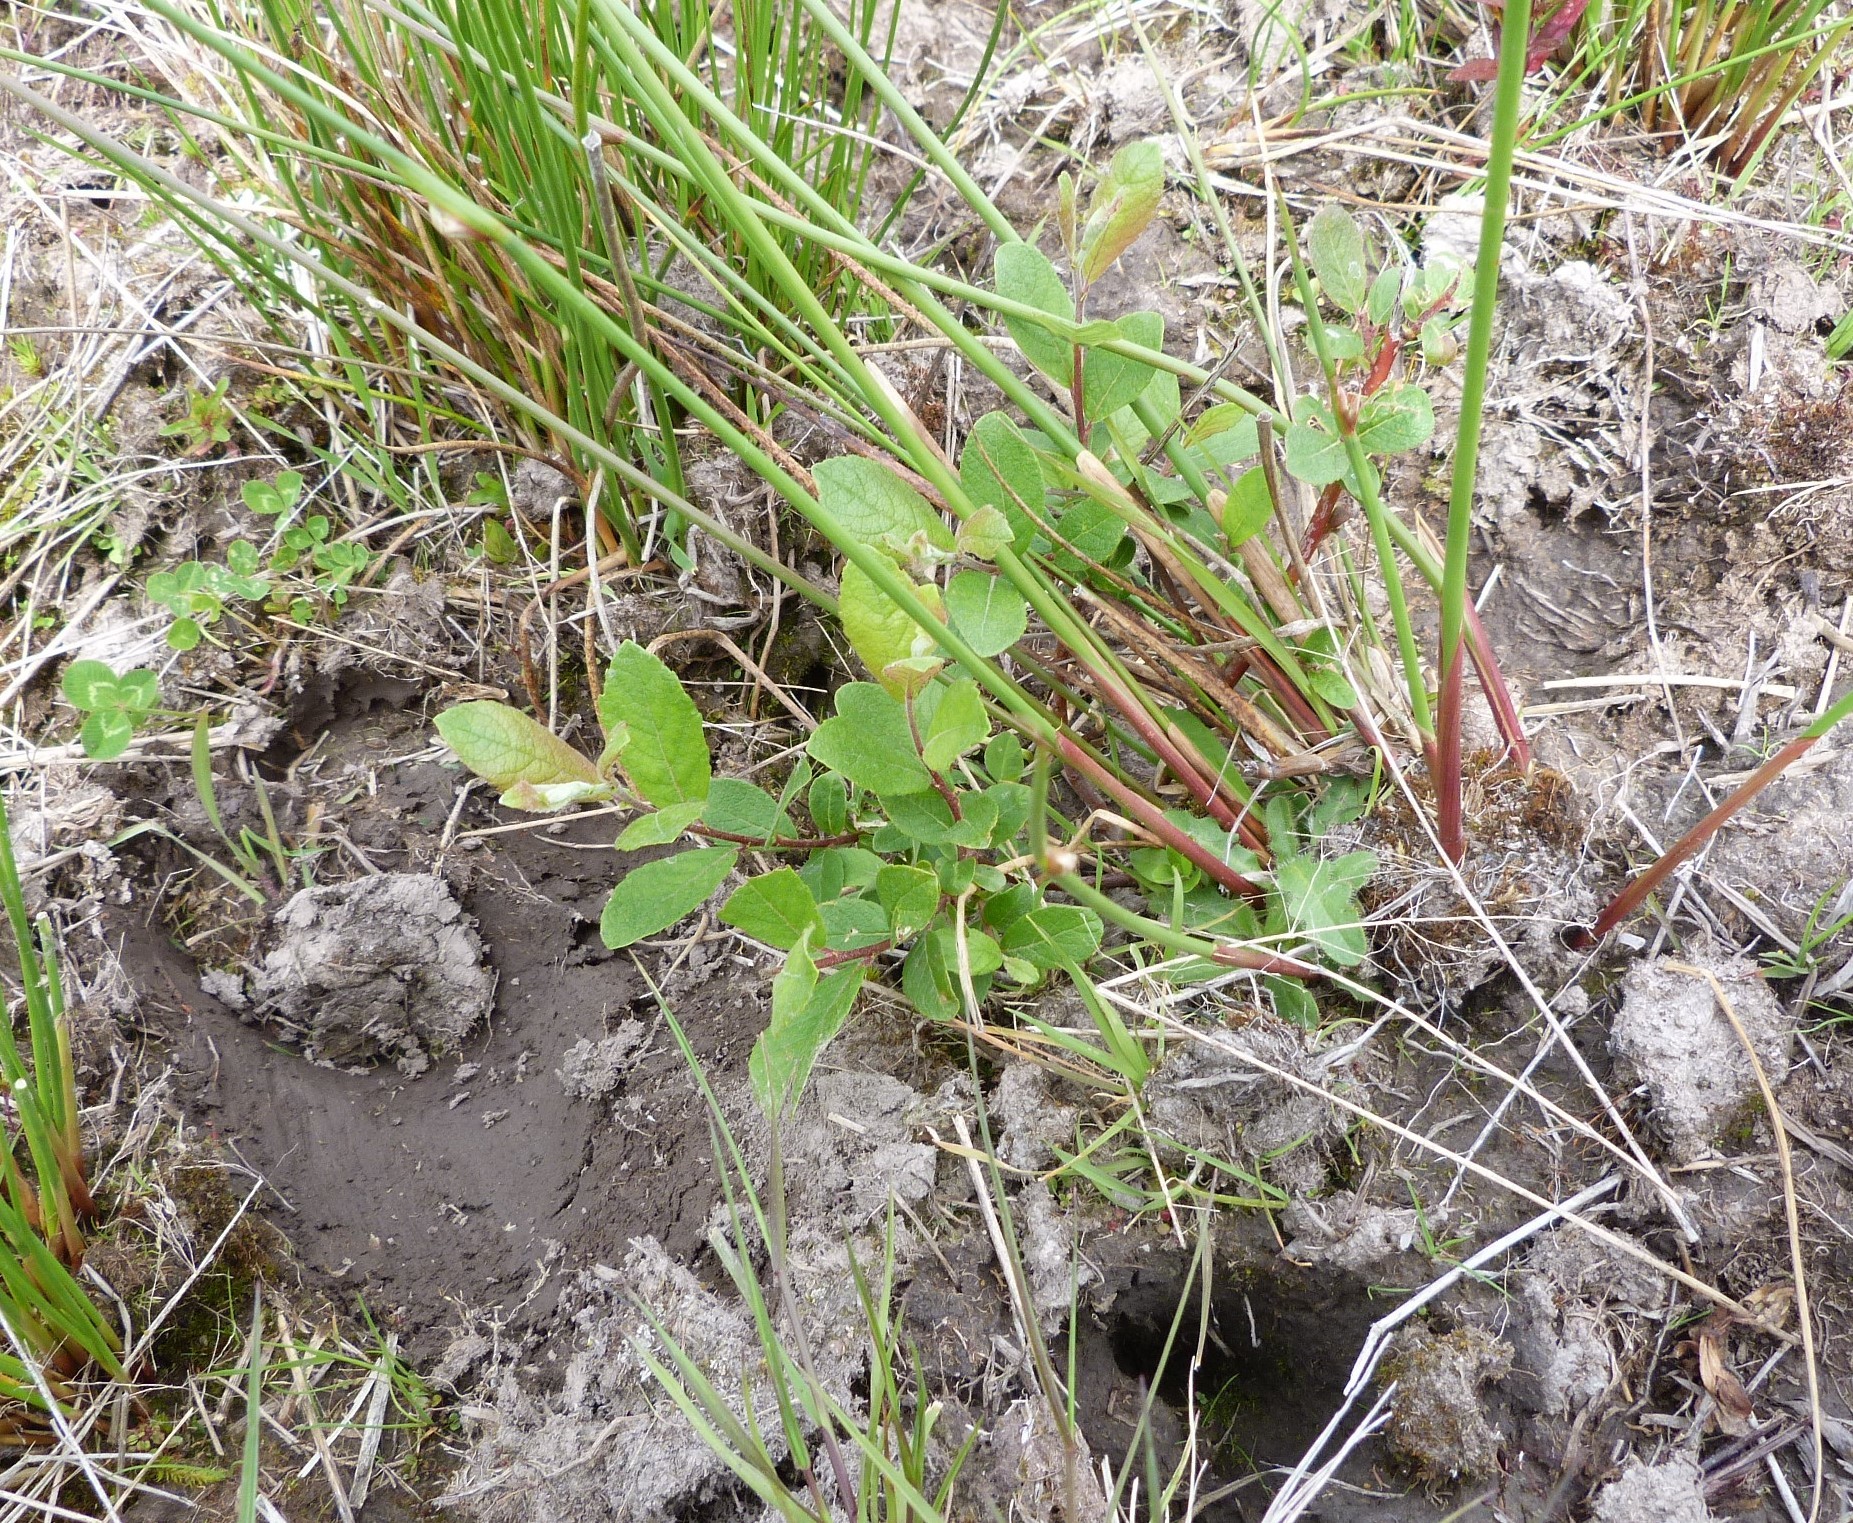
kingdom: Plantae
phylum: Tracheophyta
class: Magnoliopsida
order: Malpighiales
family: Salicaceae
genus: Salix
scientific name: Salix cinerea
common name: Common sallow
